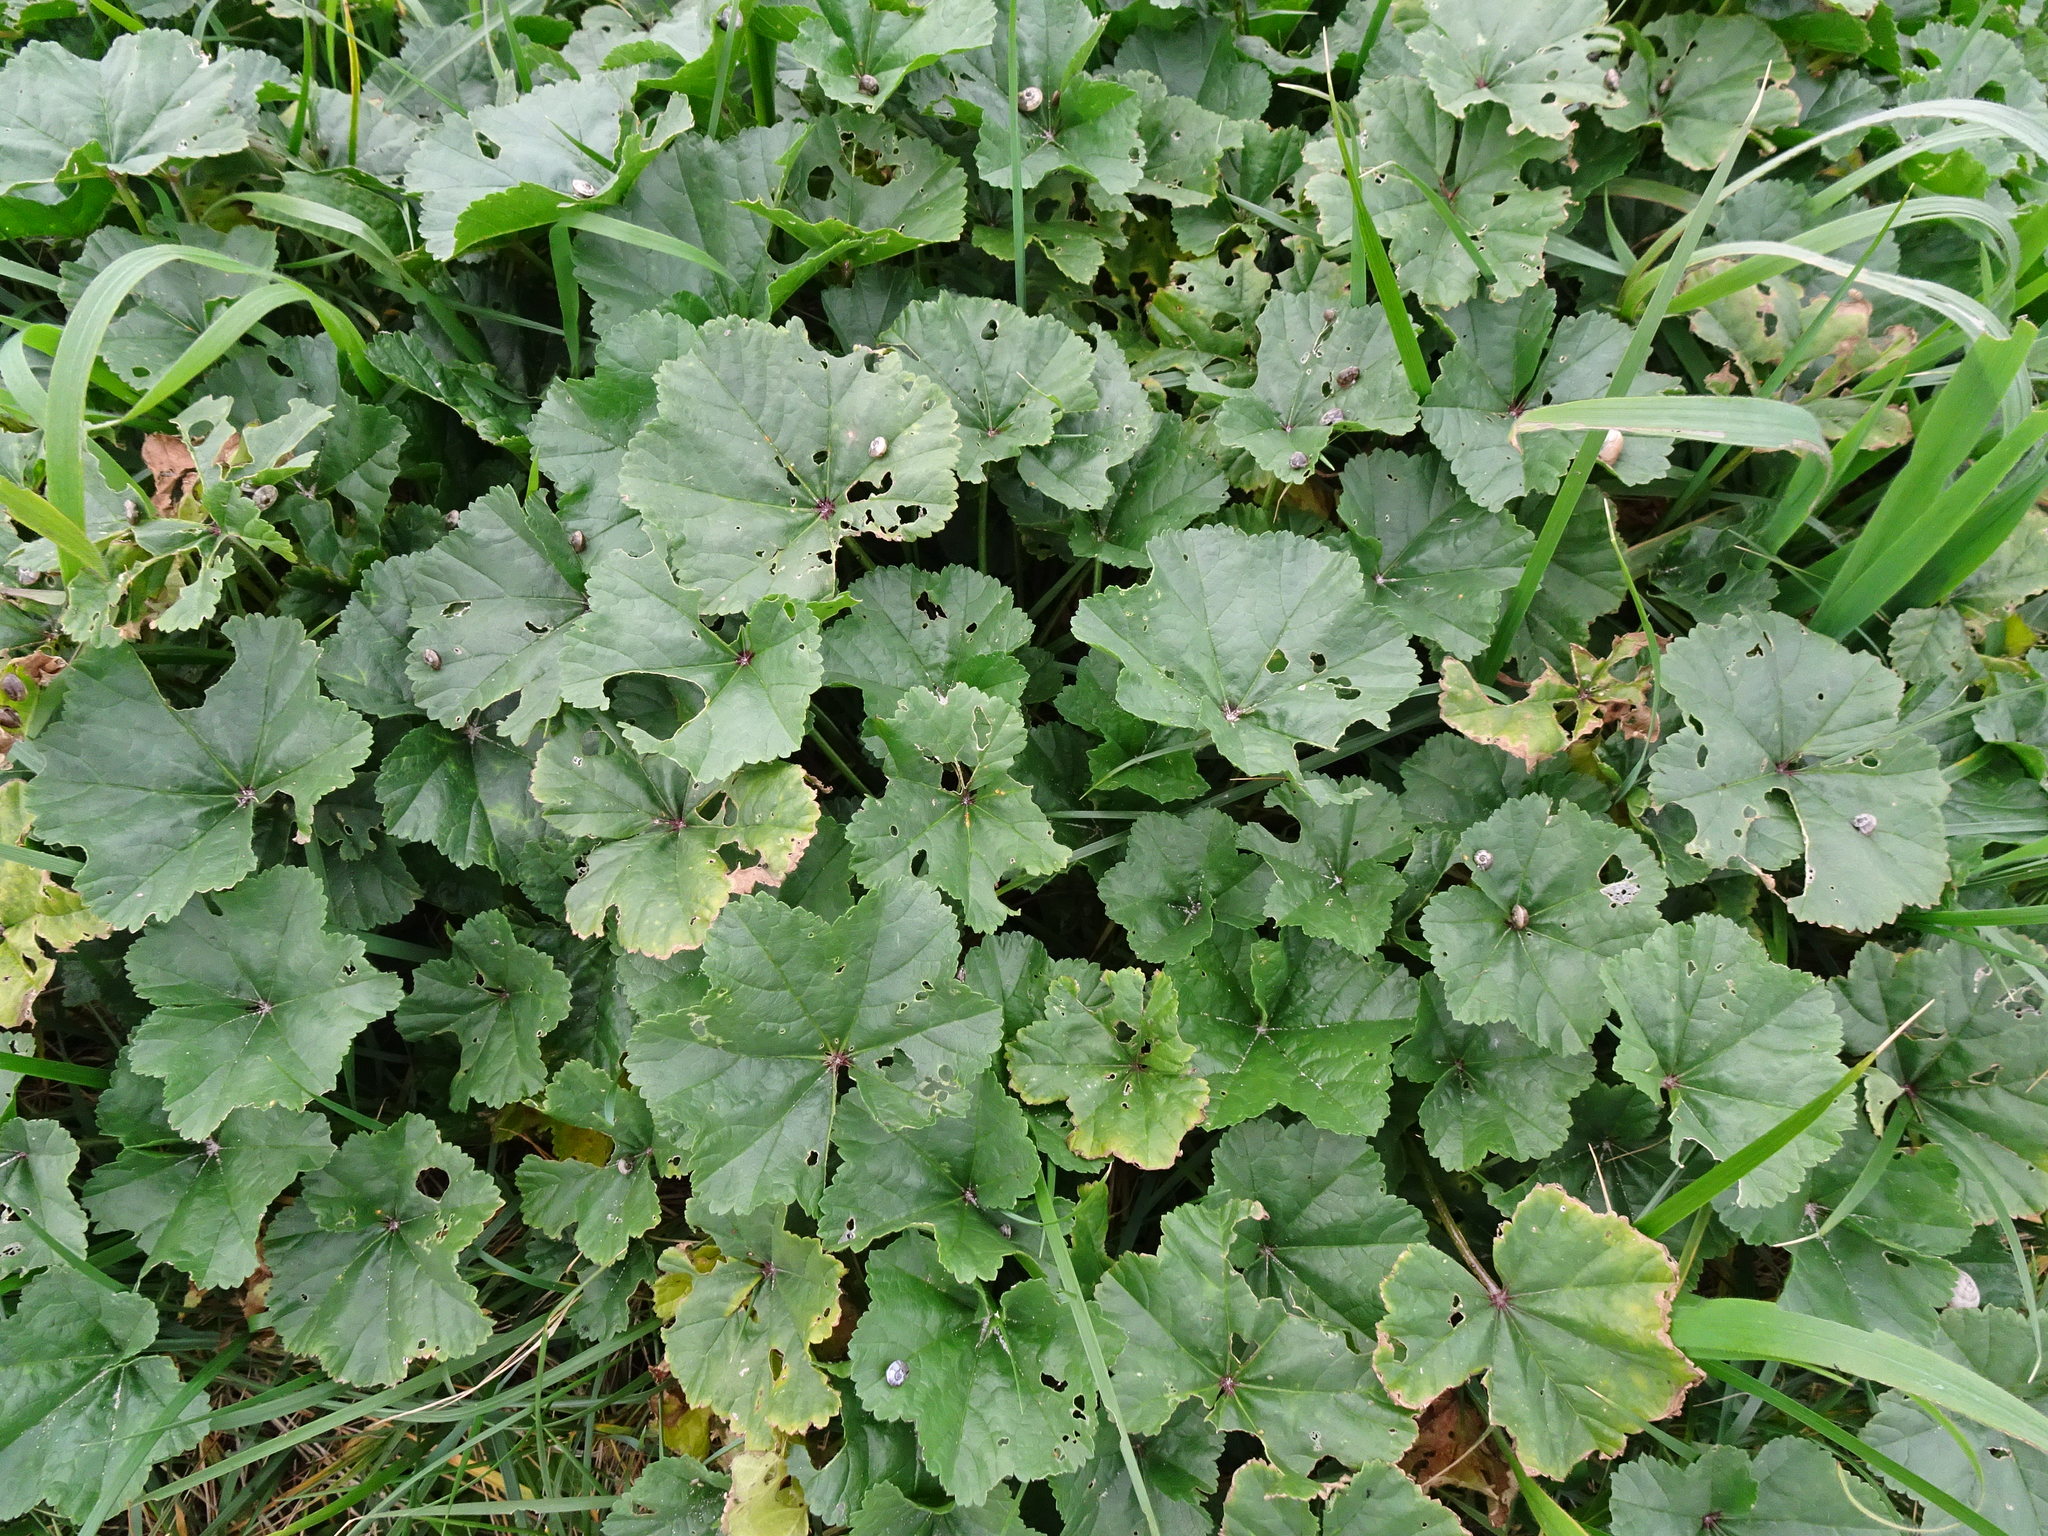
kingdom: Plantae
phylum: Tracheophyta
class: Magnoliopsida
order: Malvales
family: Malvaceae
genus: Malva
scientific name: Malva sylvestris
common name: Common mallow
